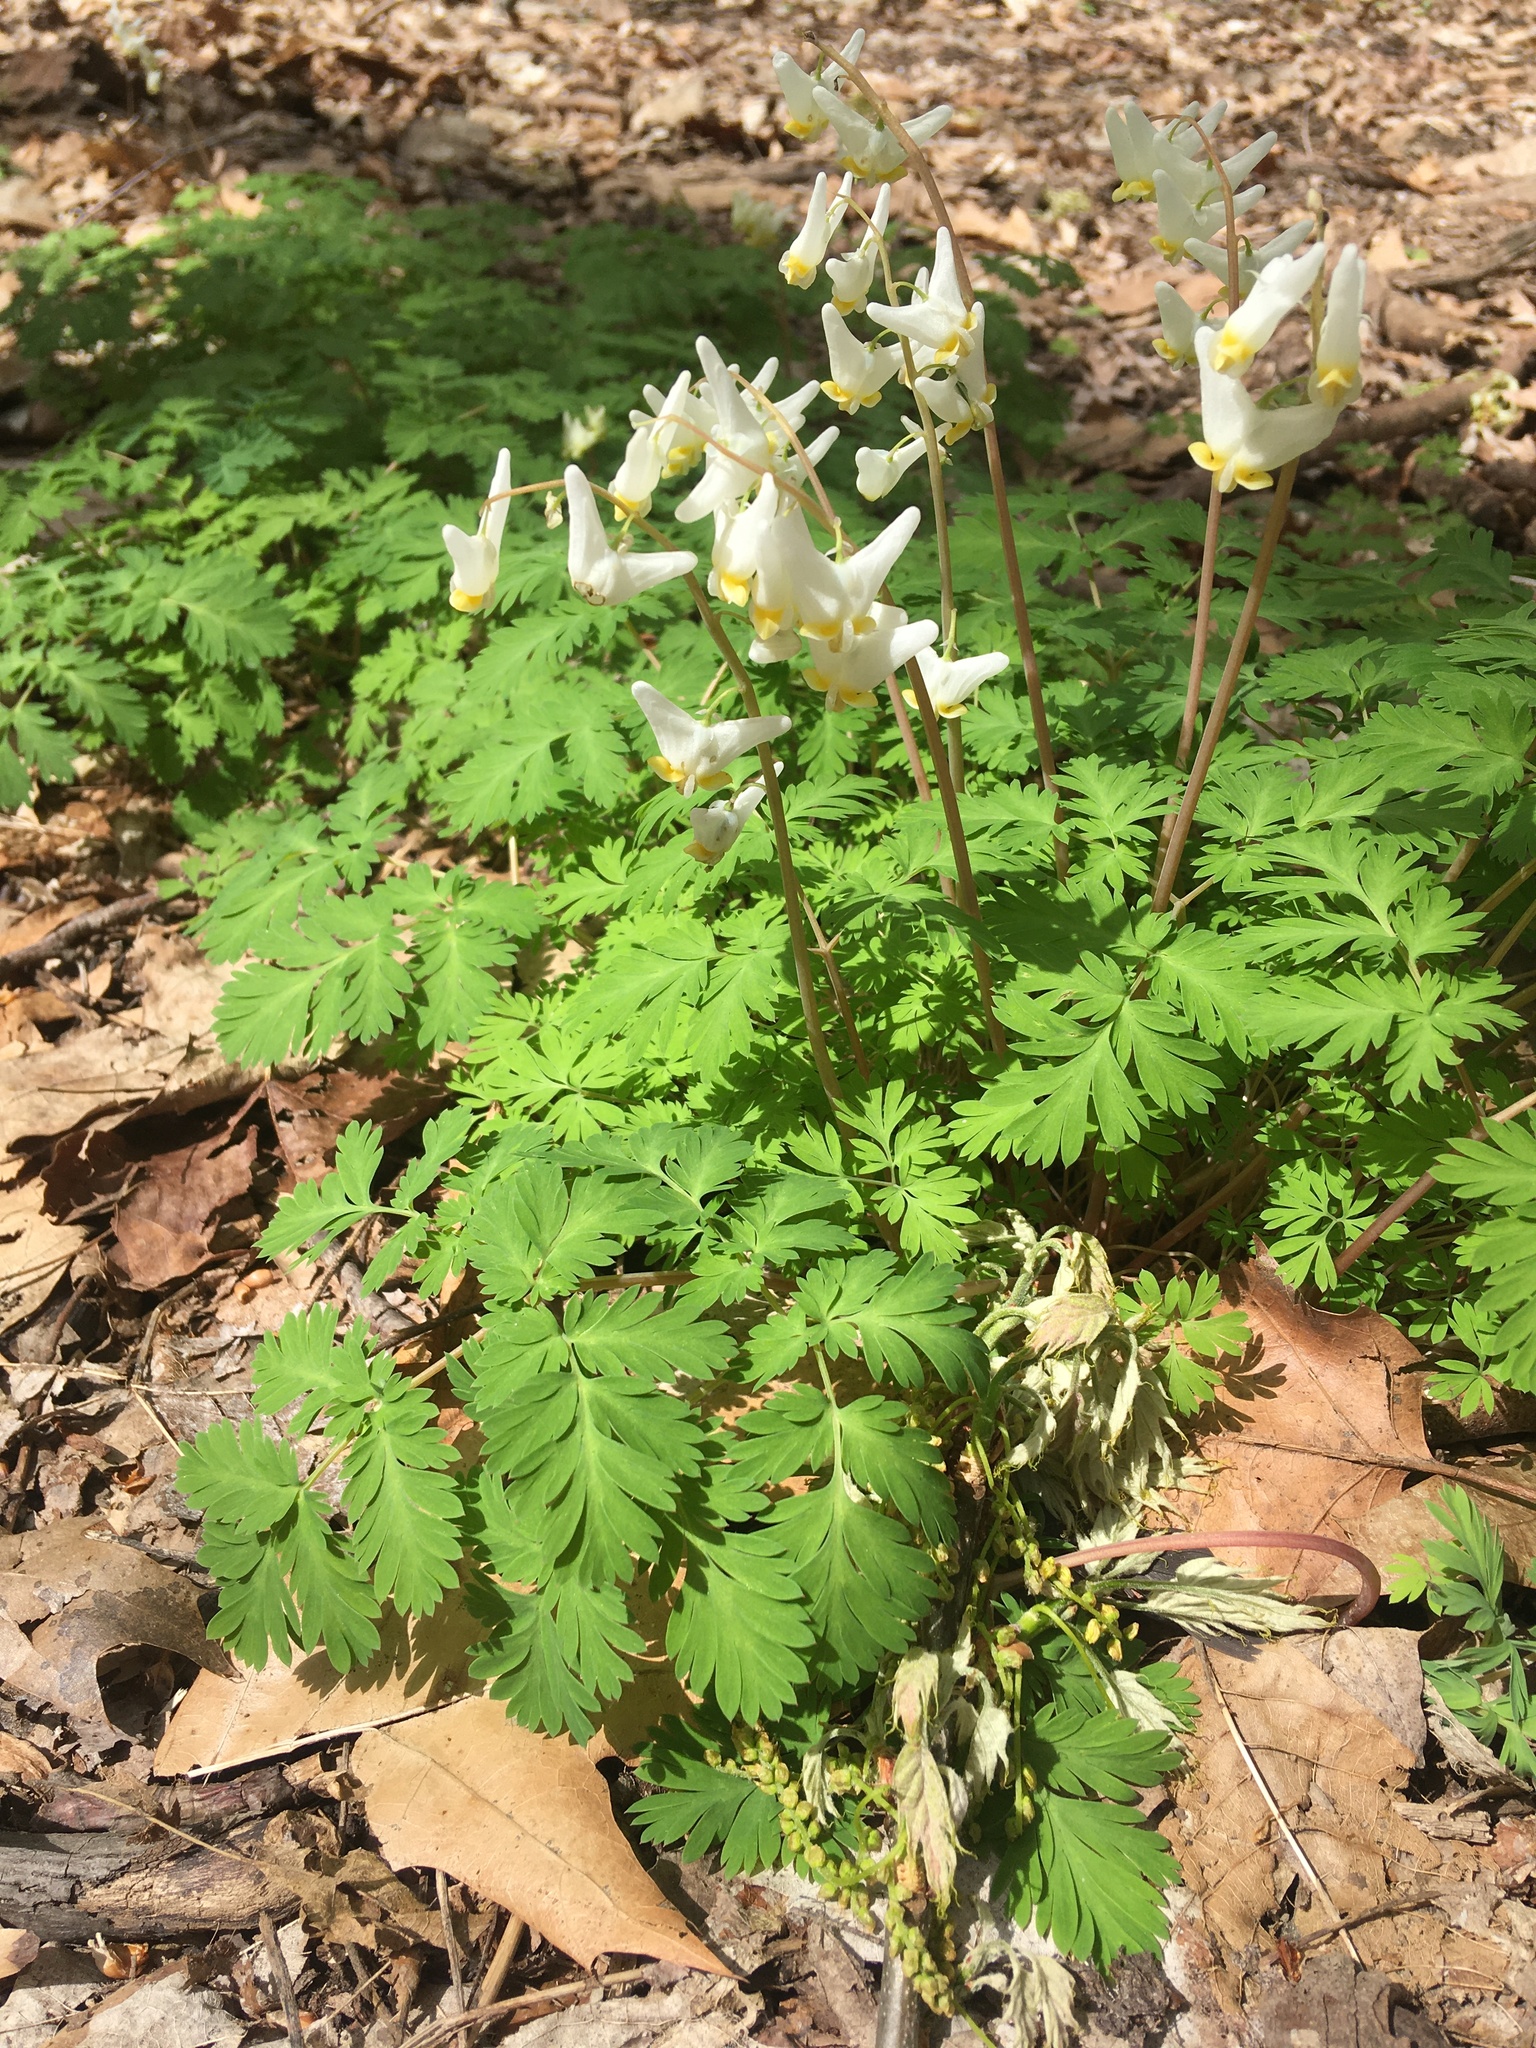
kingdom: Plantae
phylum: Tracheophyta
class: Magnoliopsida
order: Ranunculales
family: Papaveraceae
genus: Dicentra
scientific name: Dicentra cucullaria
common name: Dutchman's breeches
